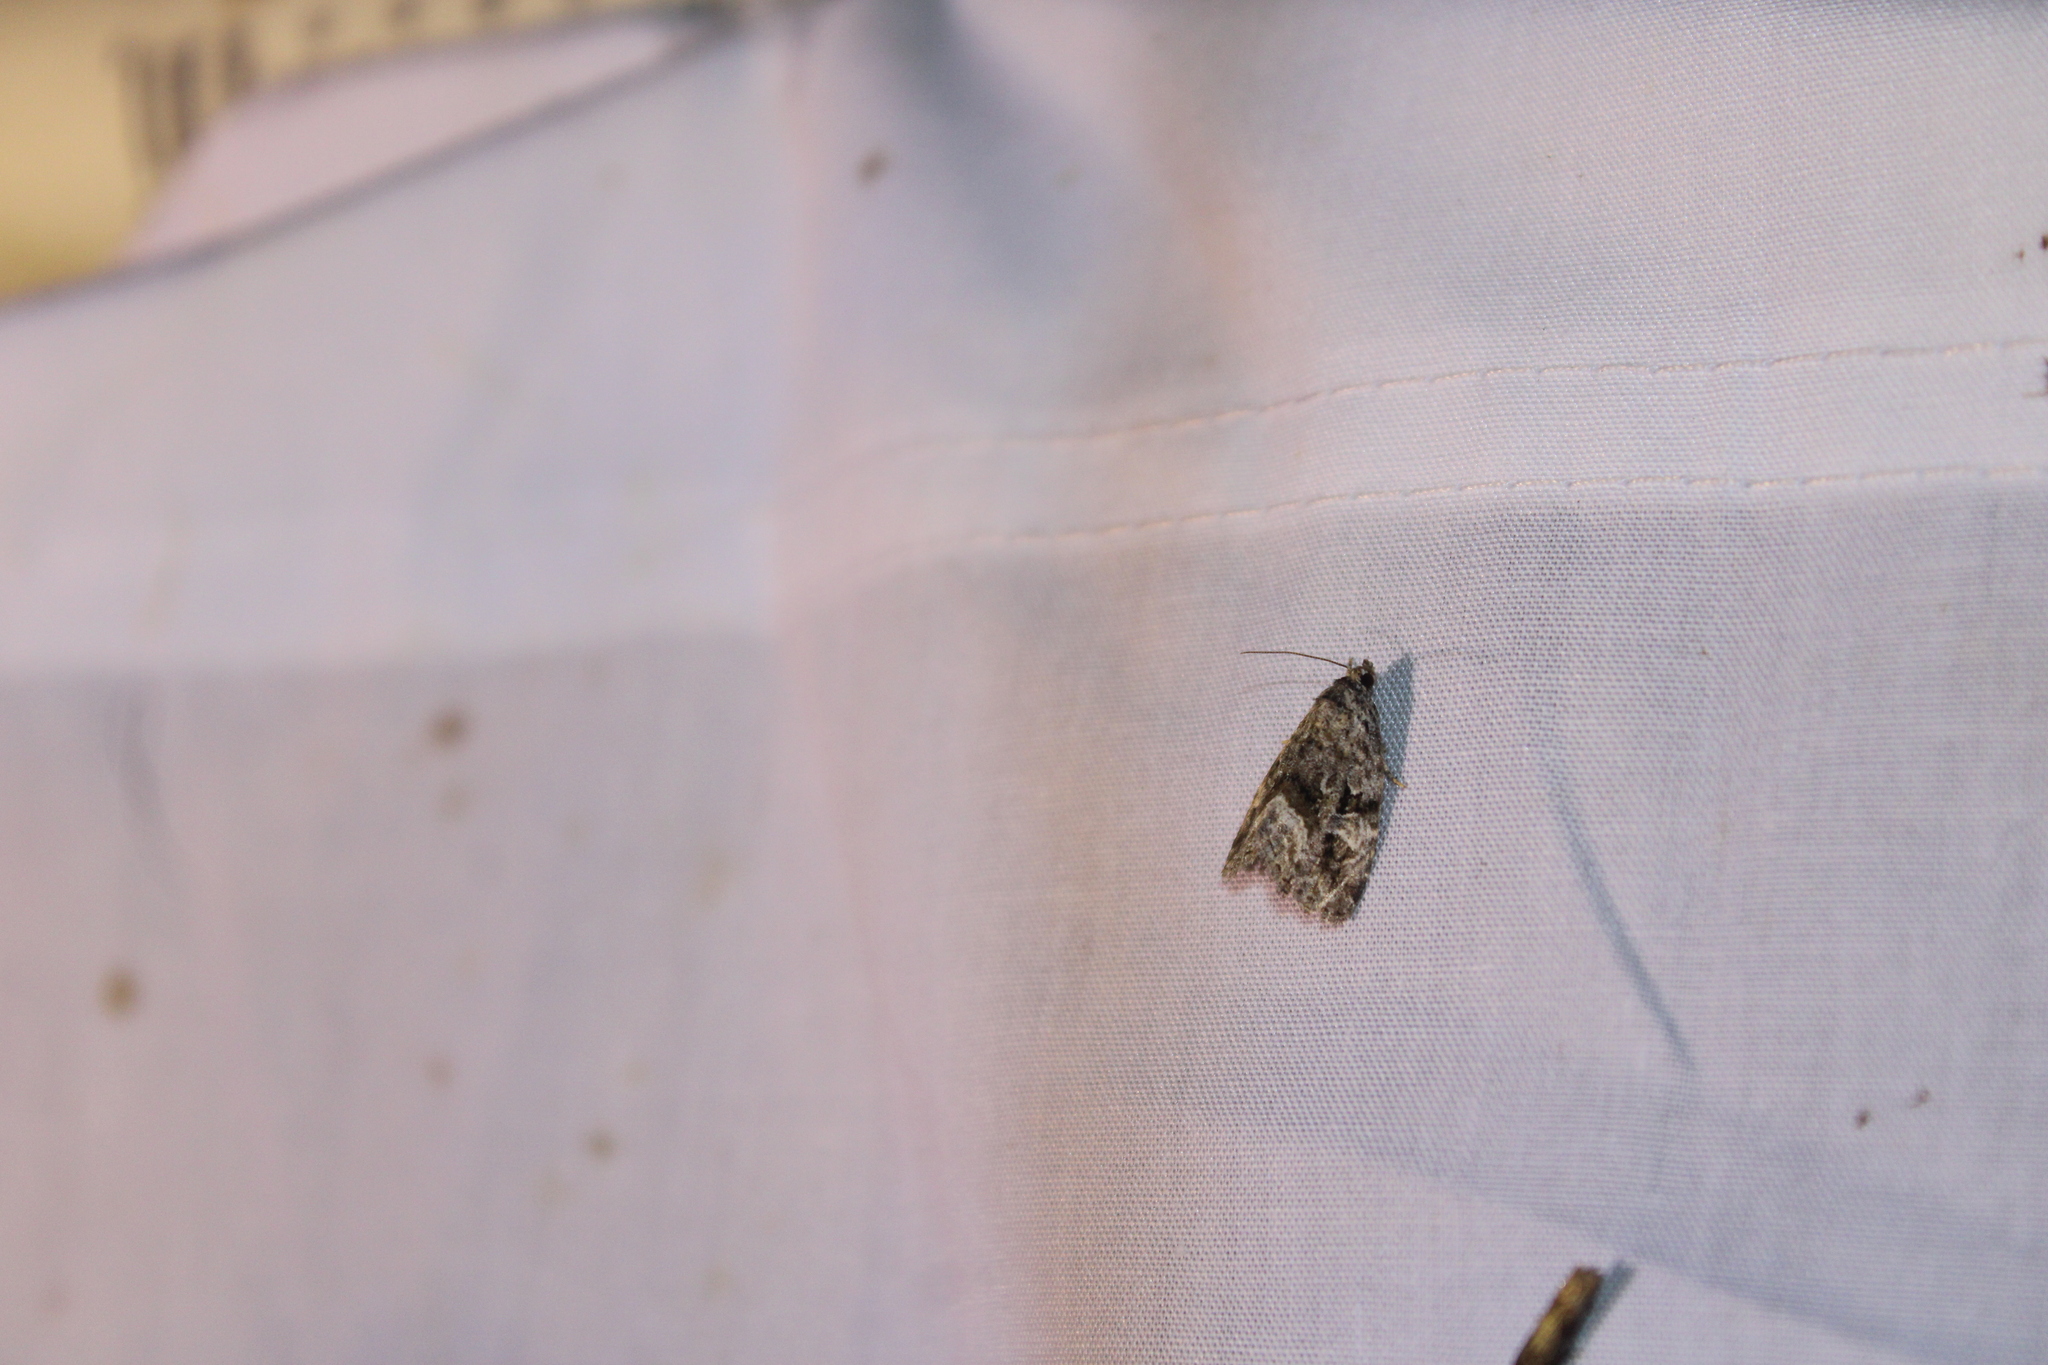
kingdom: Animalia
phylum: Arthropoda
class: Insecta
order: Lepidoptera
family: Noctuidae
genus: Protodeltote
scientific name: Protodeltote muscosula
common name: Large mossy glyph
